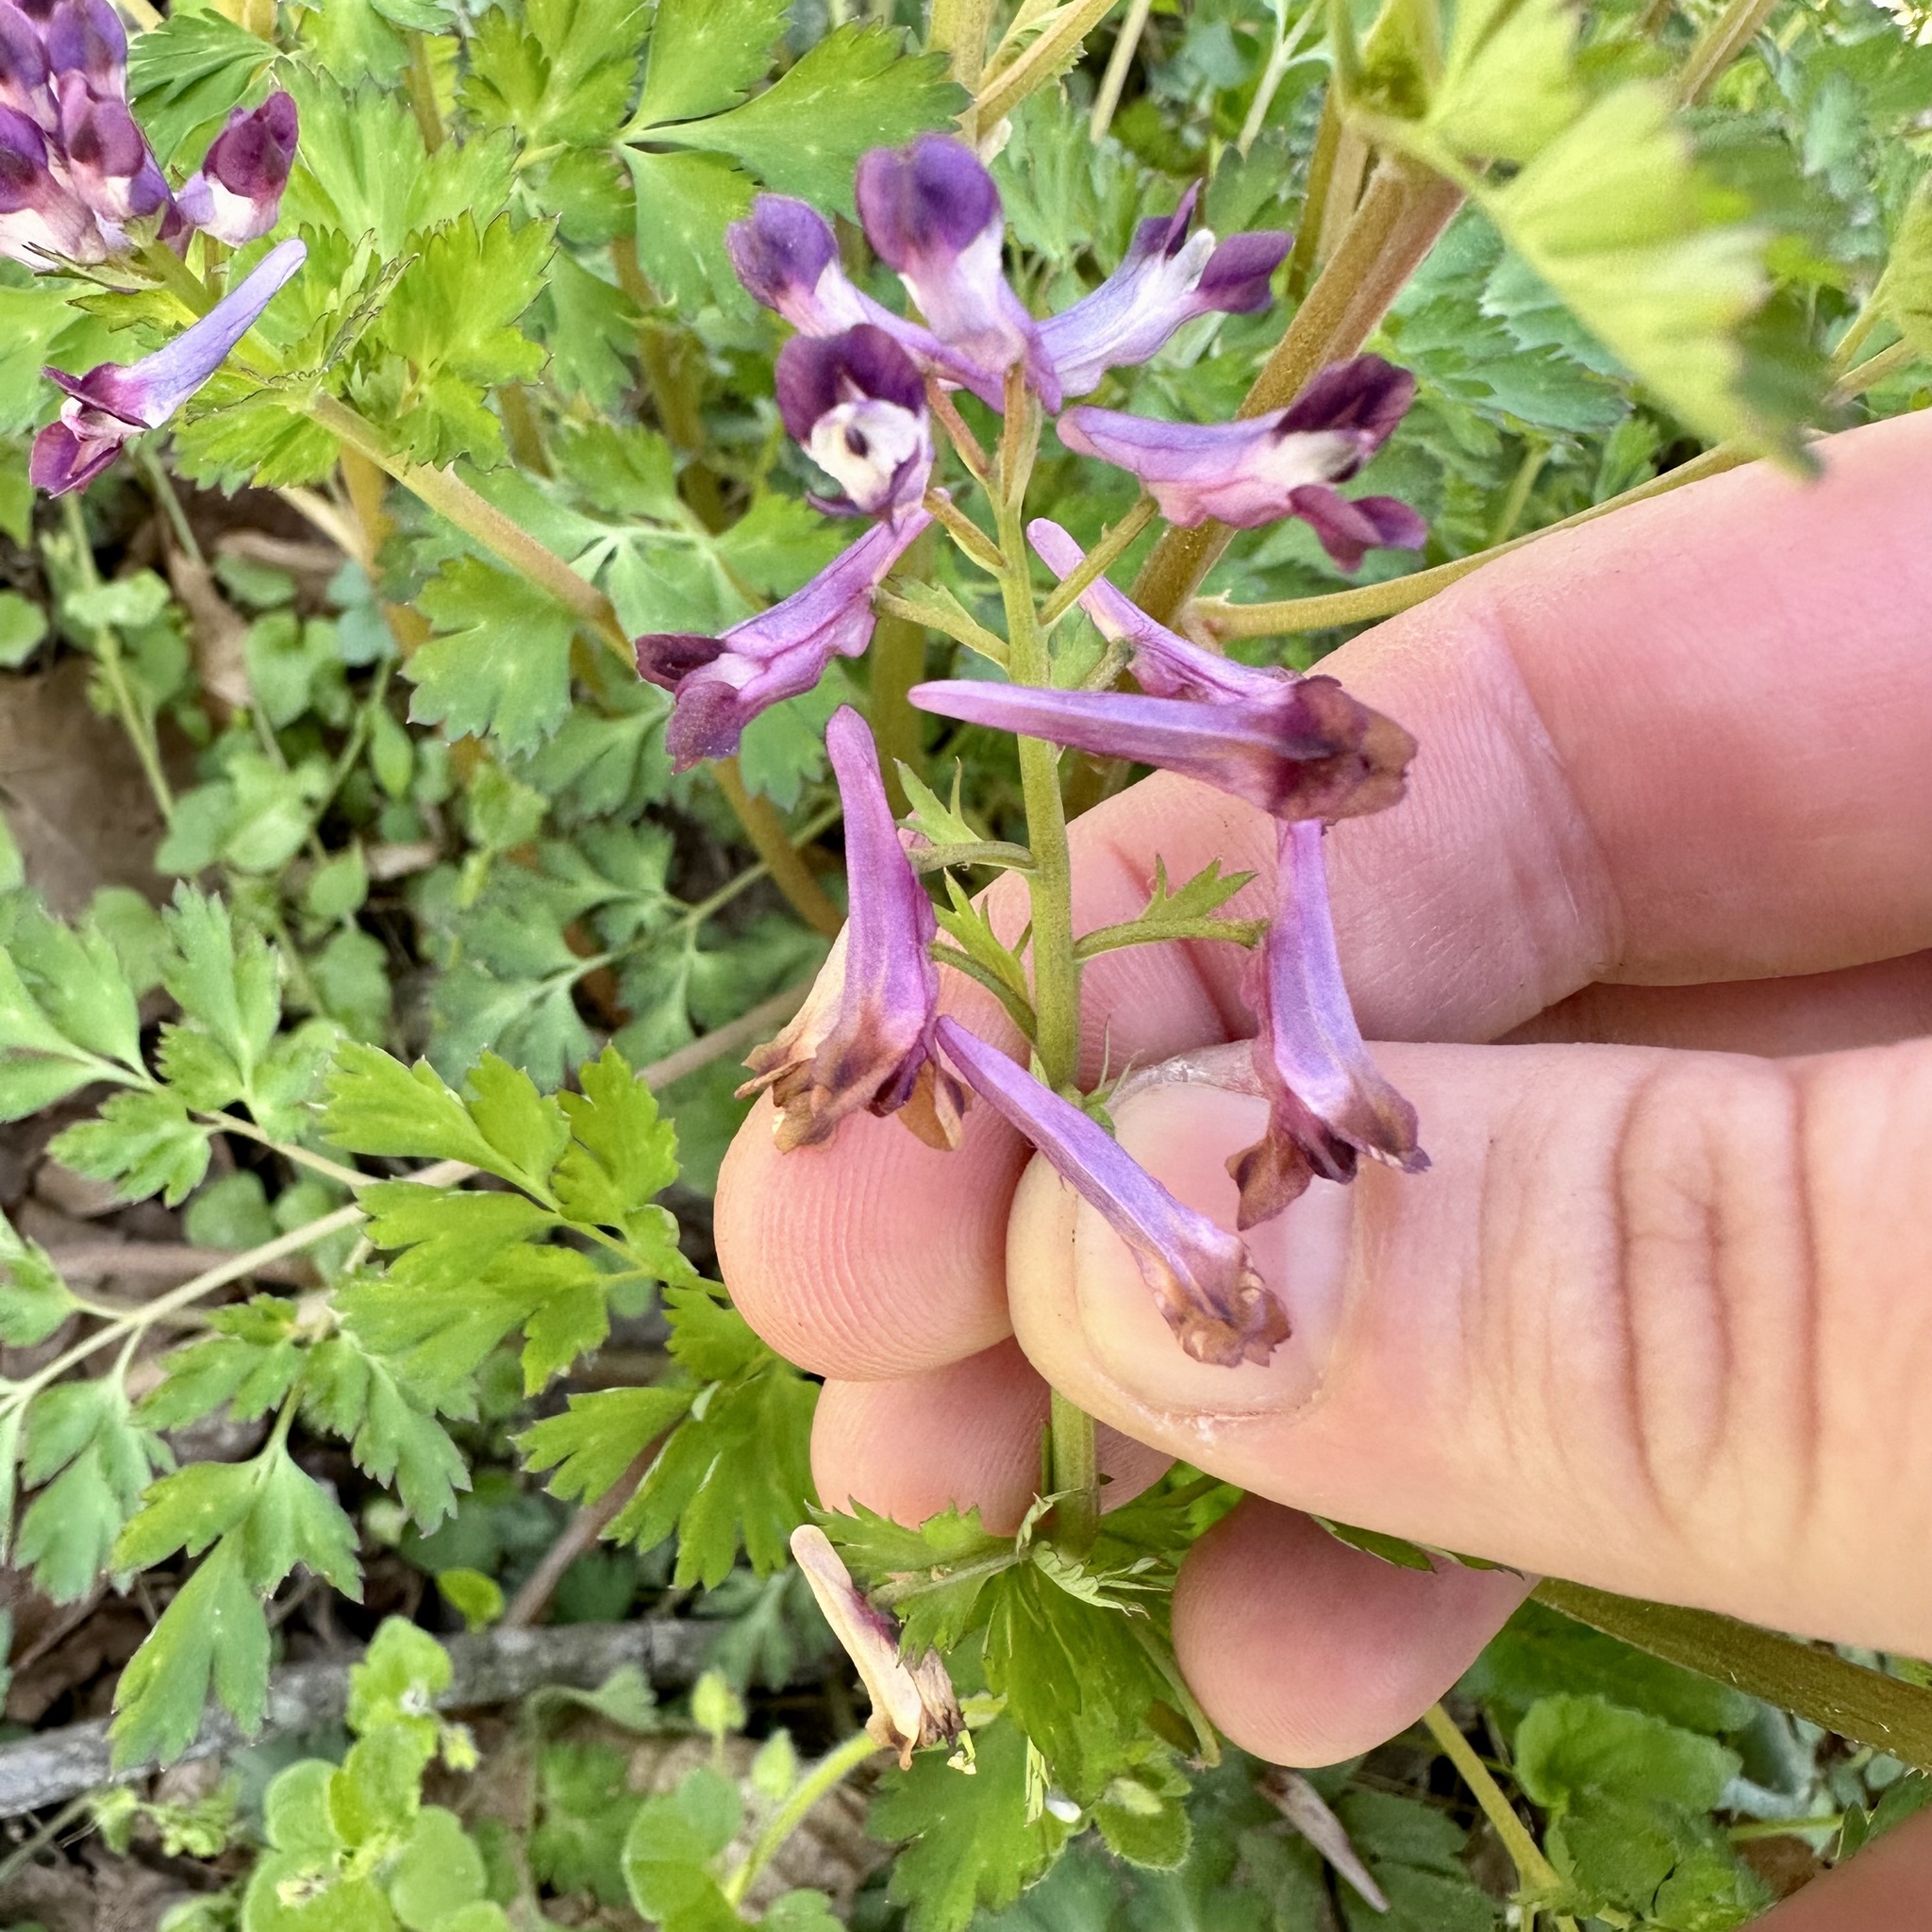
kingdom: Plantae
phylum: Tracheophyta
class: Magnoliopsida
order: Ranunculales
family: Papaveraceae
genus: Corydalis
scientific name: Corydalis incisa
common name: Incised fumewort
